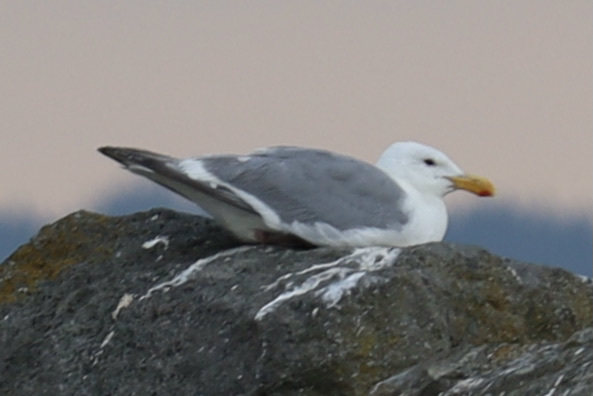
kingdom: Animalia
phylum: Chordata
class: Aves
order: Charadriiformes
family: Laridae
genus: Larus
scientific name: Larus
